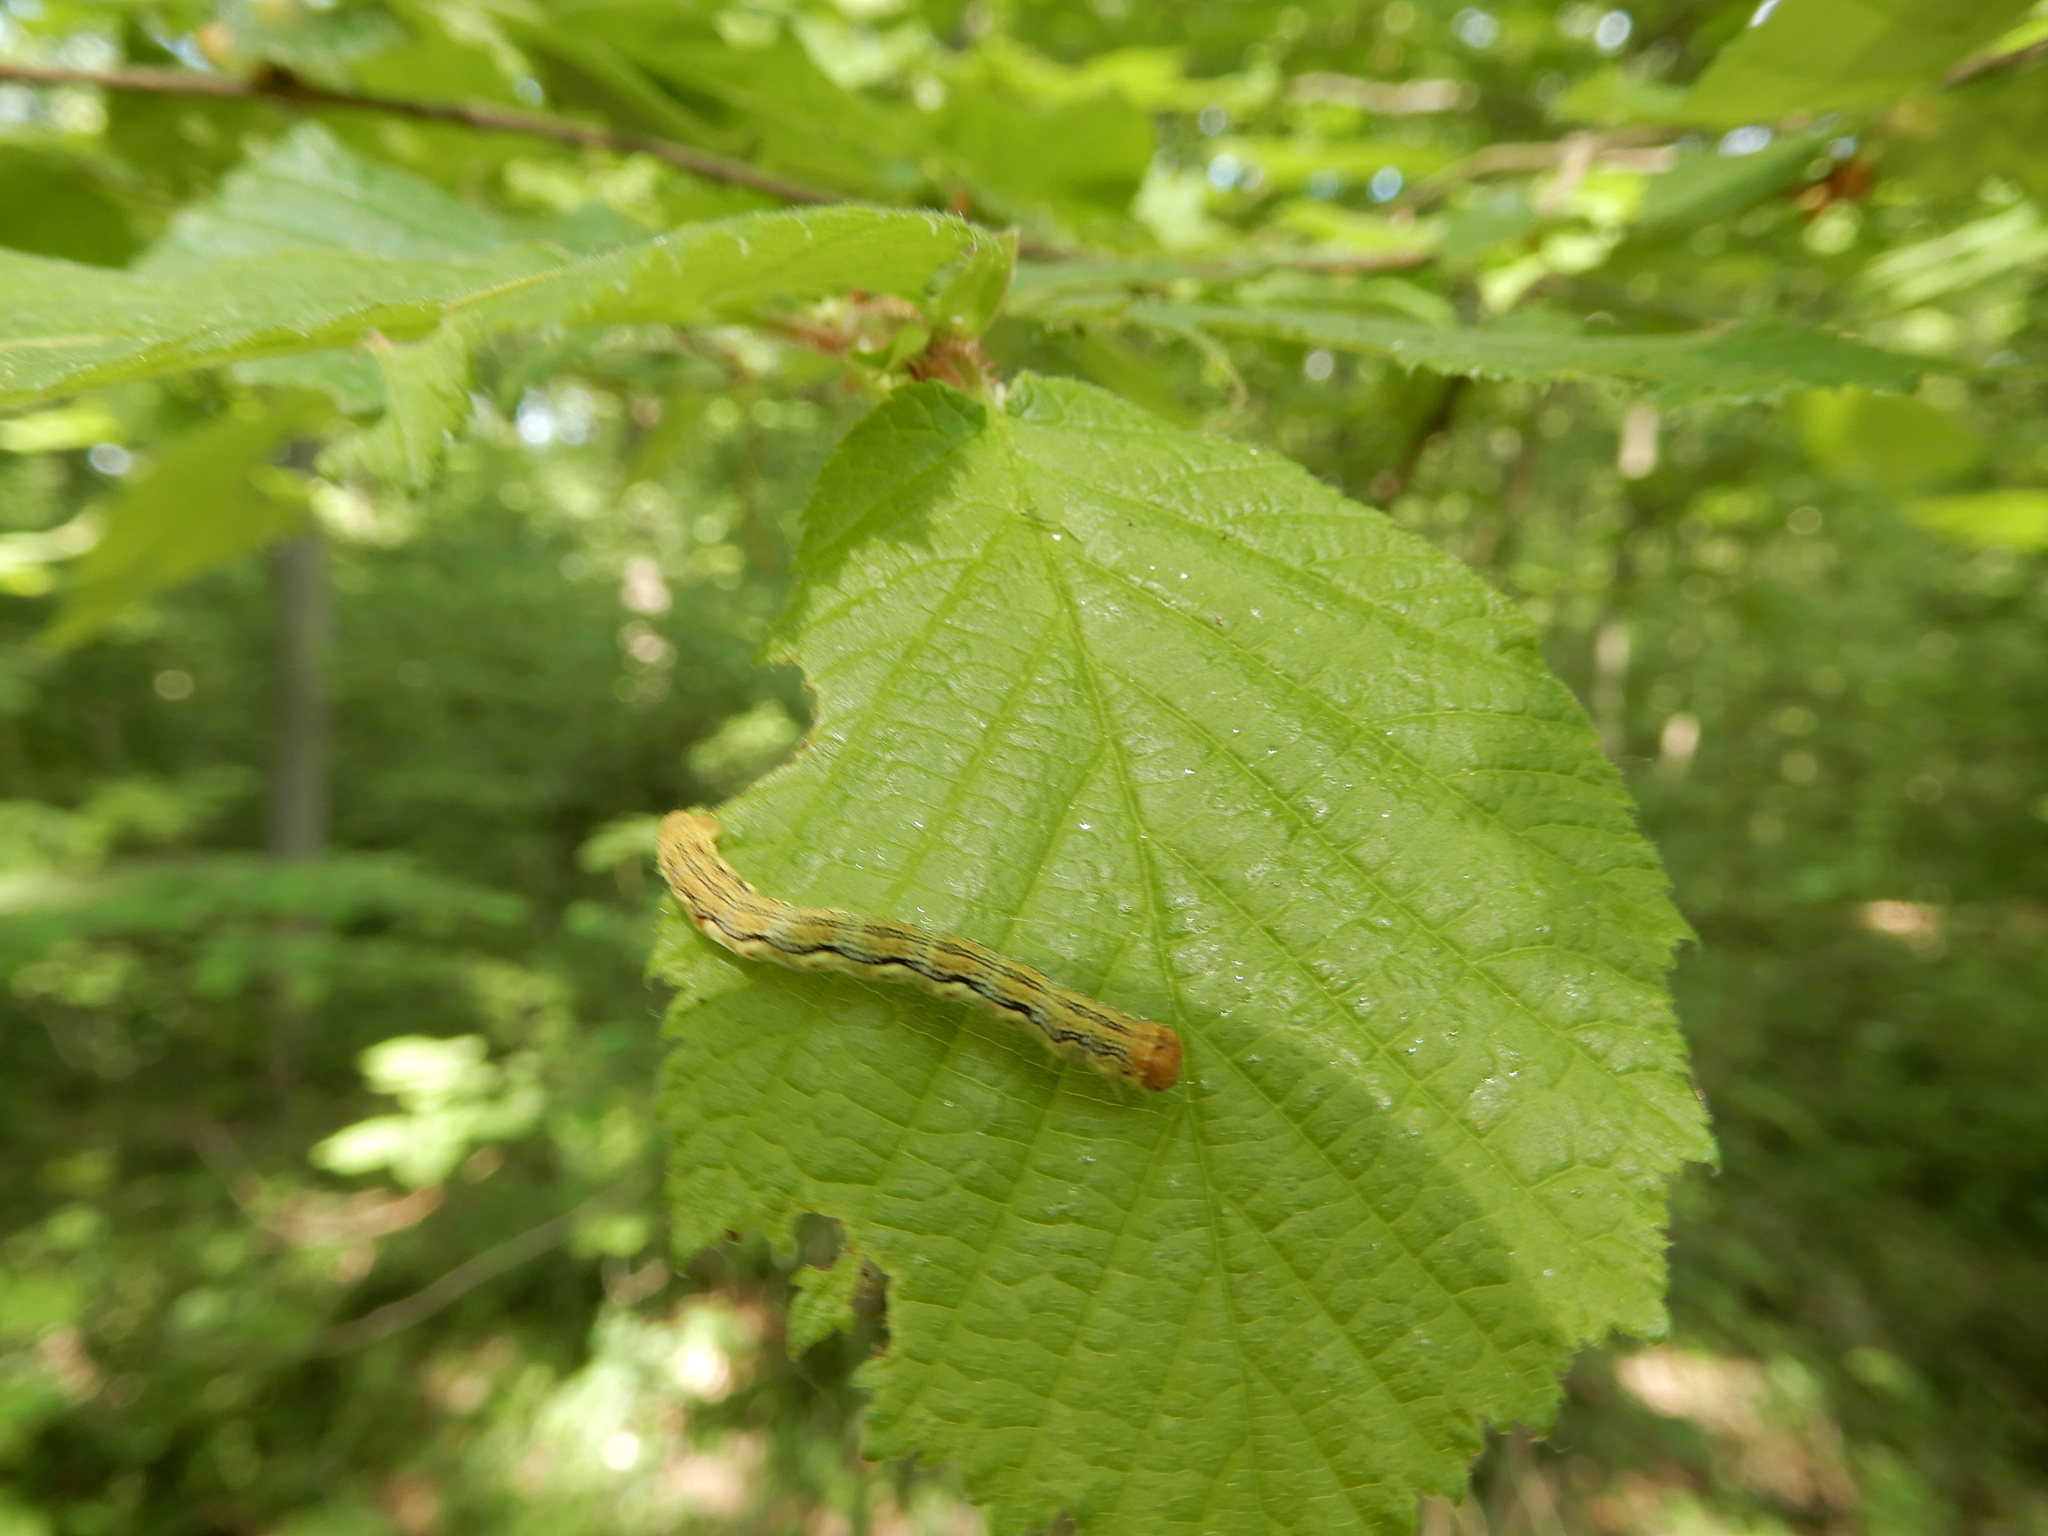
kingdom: Plantae
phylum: Tracheophyta
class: Magnoliopsida
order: Fagales
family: Betulaceae
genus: Corylus
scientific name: Corylus avellana
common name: European hazel
